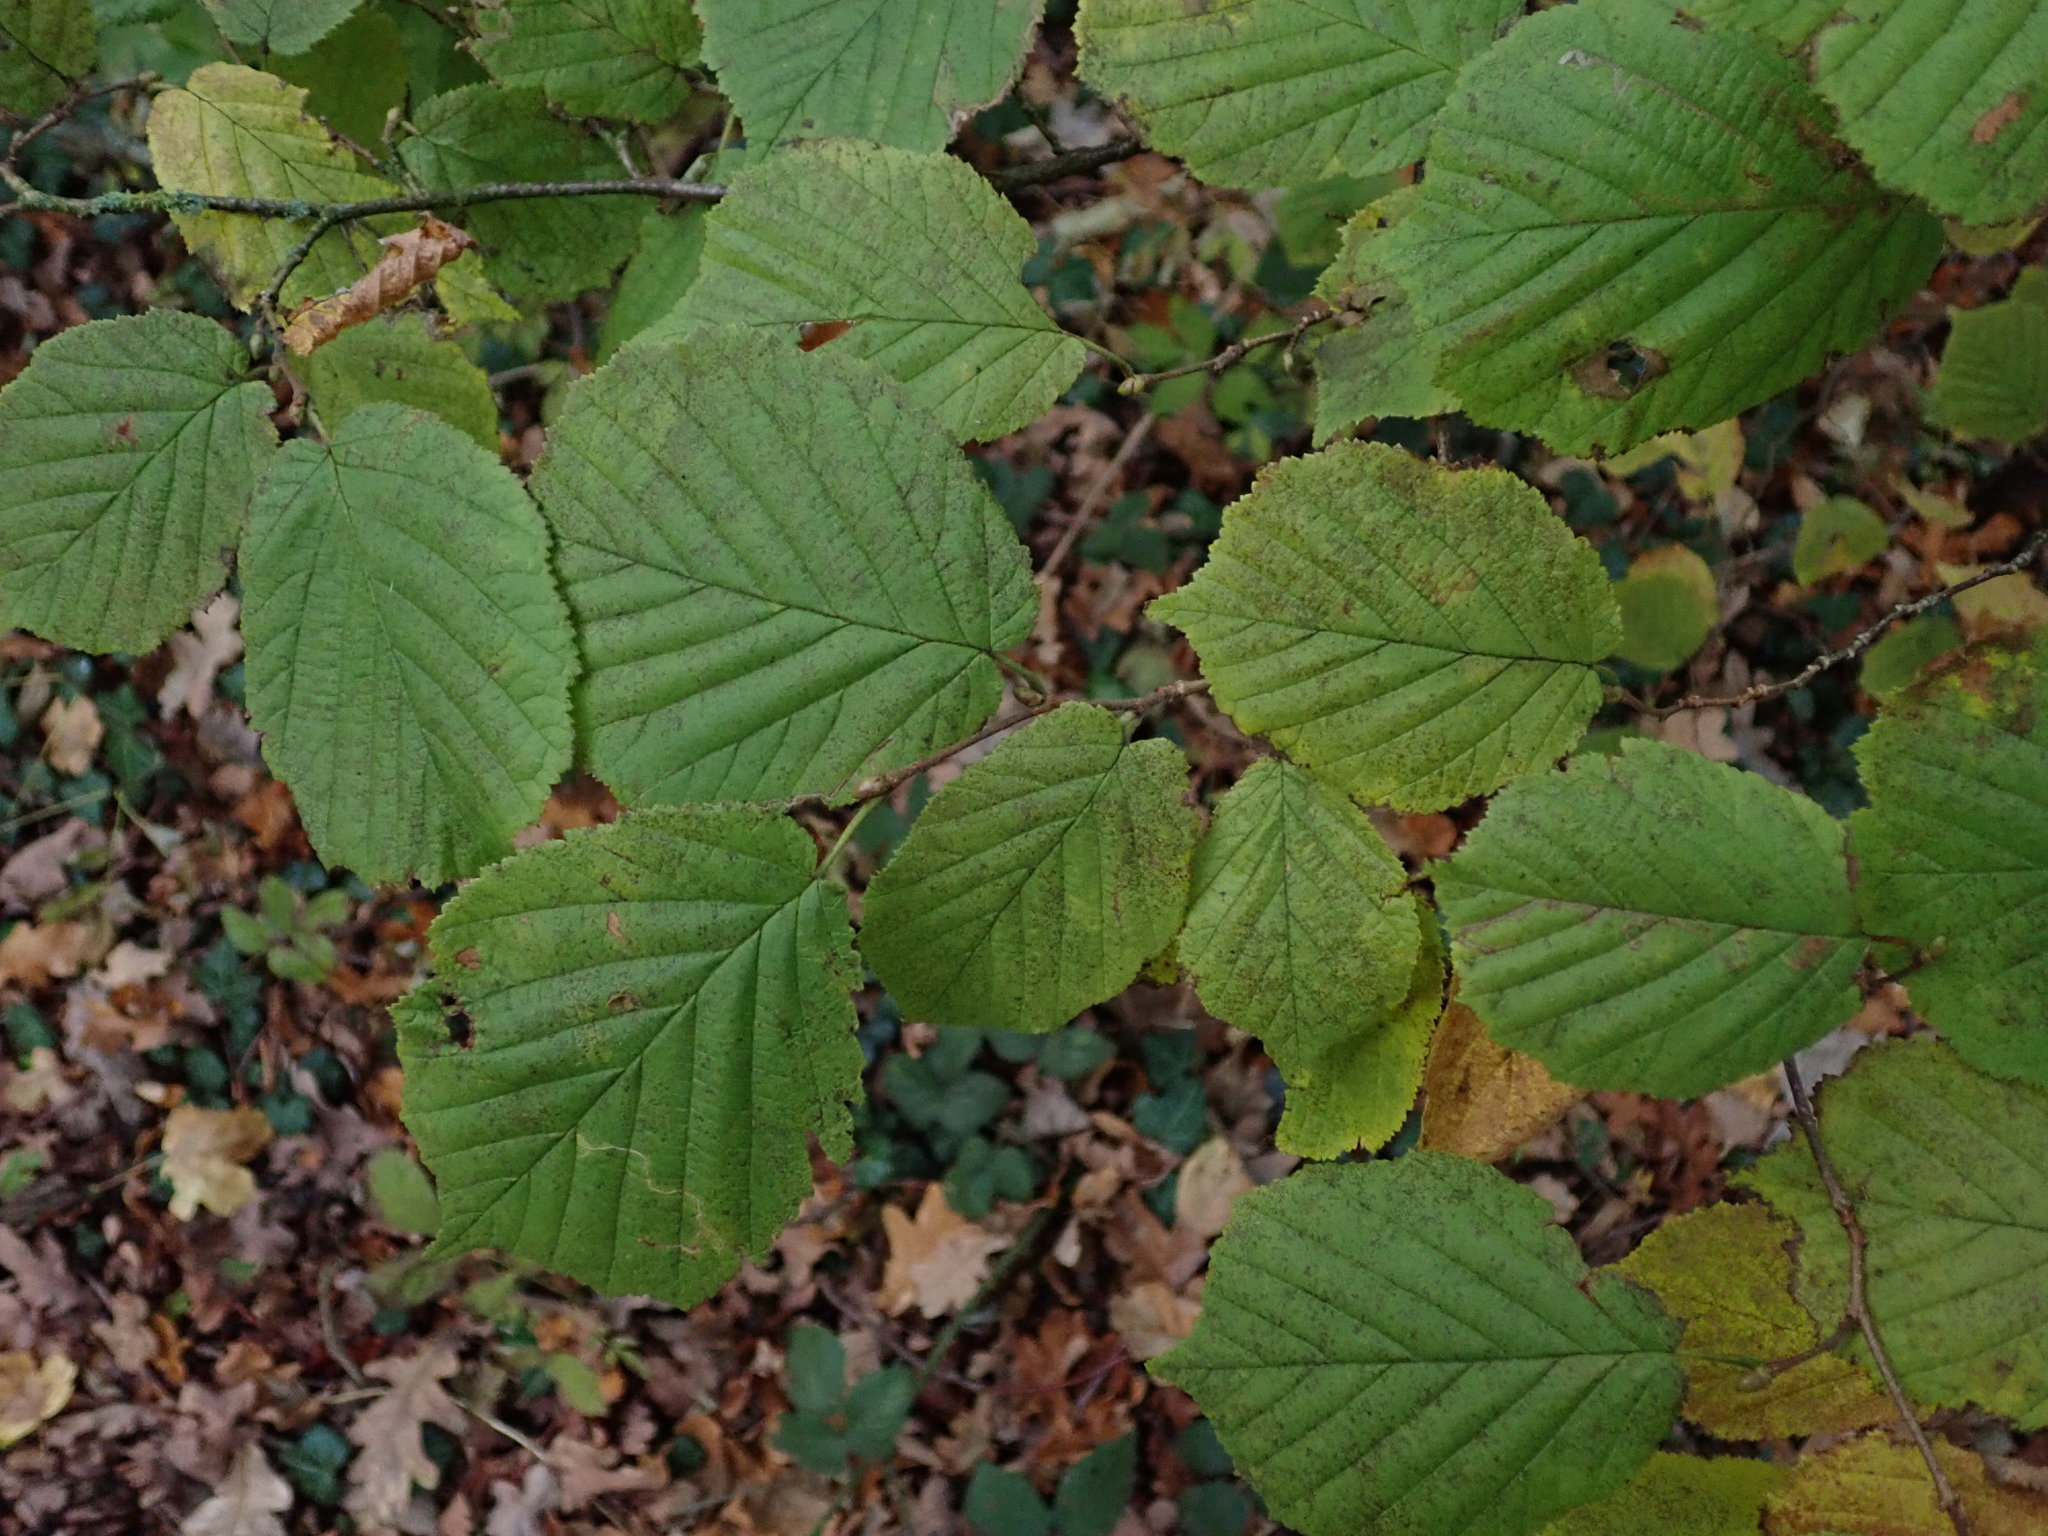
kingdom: Plantae
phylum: Tracheophyta
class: Magnoliopsida
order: Fagales
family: Betulaceae
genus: Corylus
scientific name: Corylus avellana
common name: European hazel
